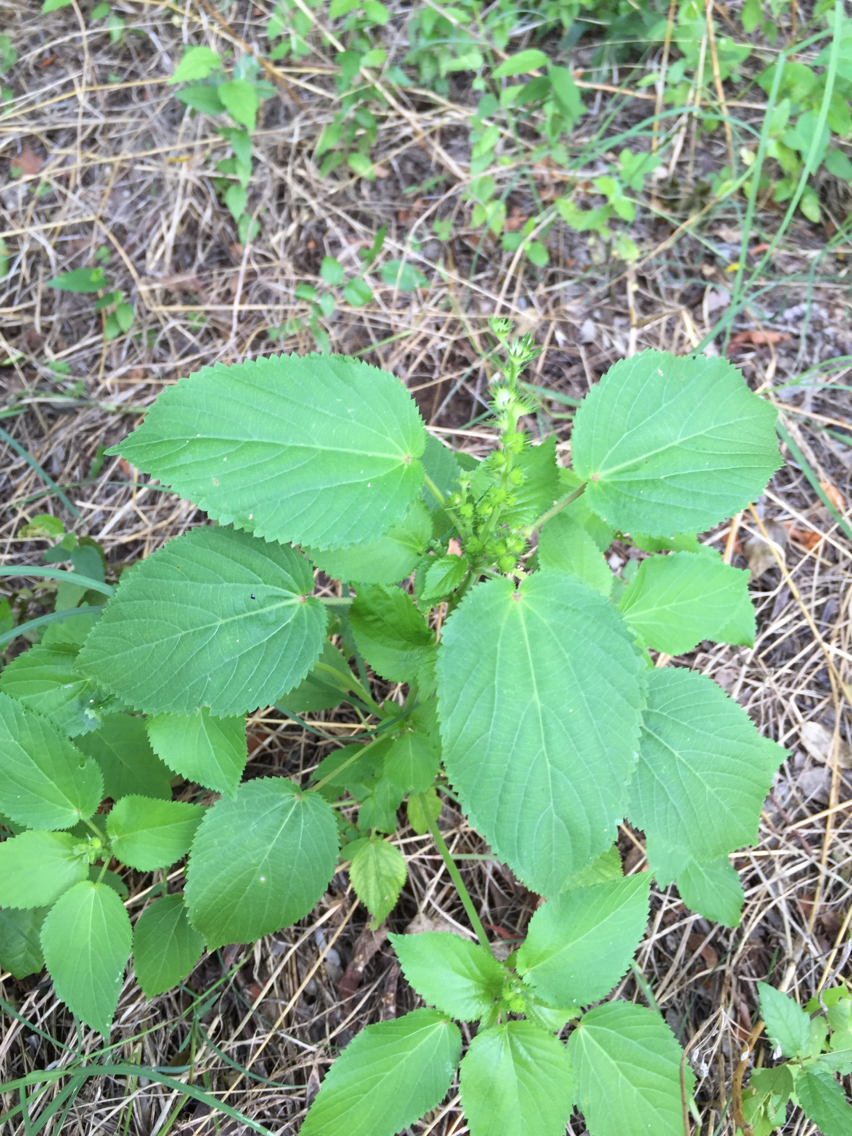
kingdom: Plantae
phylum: Tracheophyta
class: Magnoliopsida
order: Malpighiales
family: Euphorbiaceae
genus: Acalypha
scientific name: Acalypha ostryifolia
